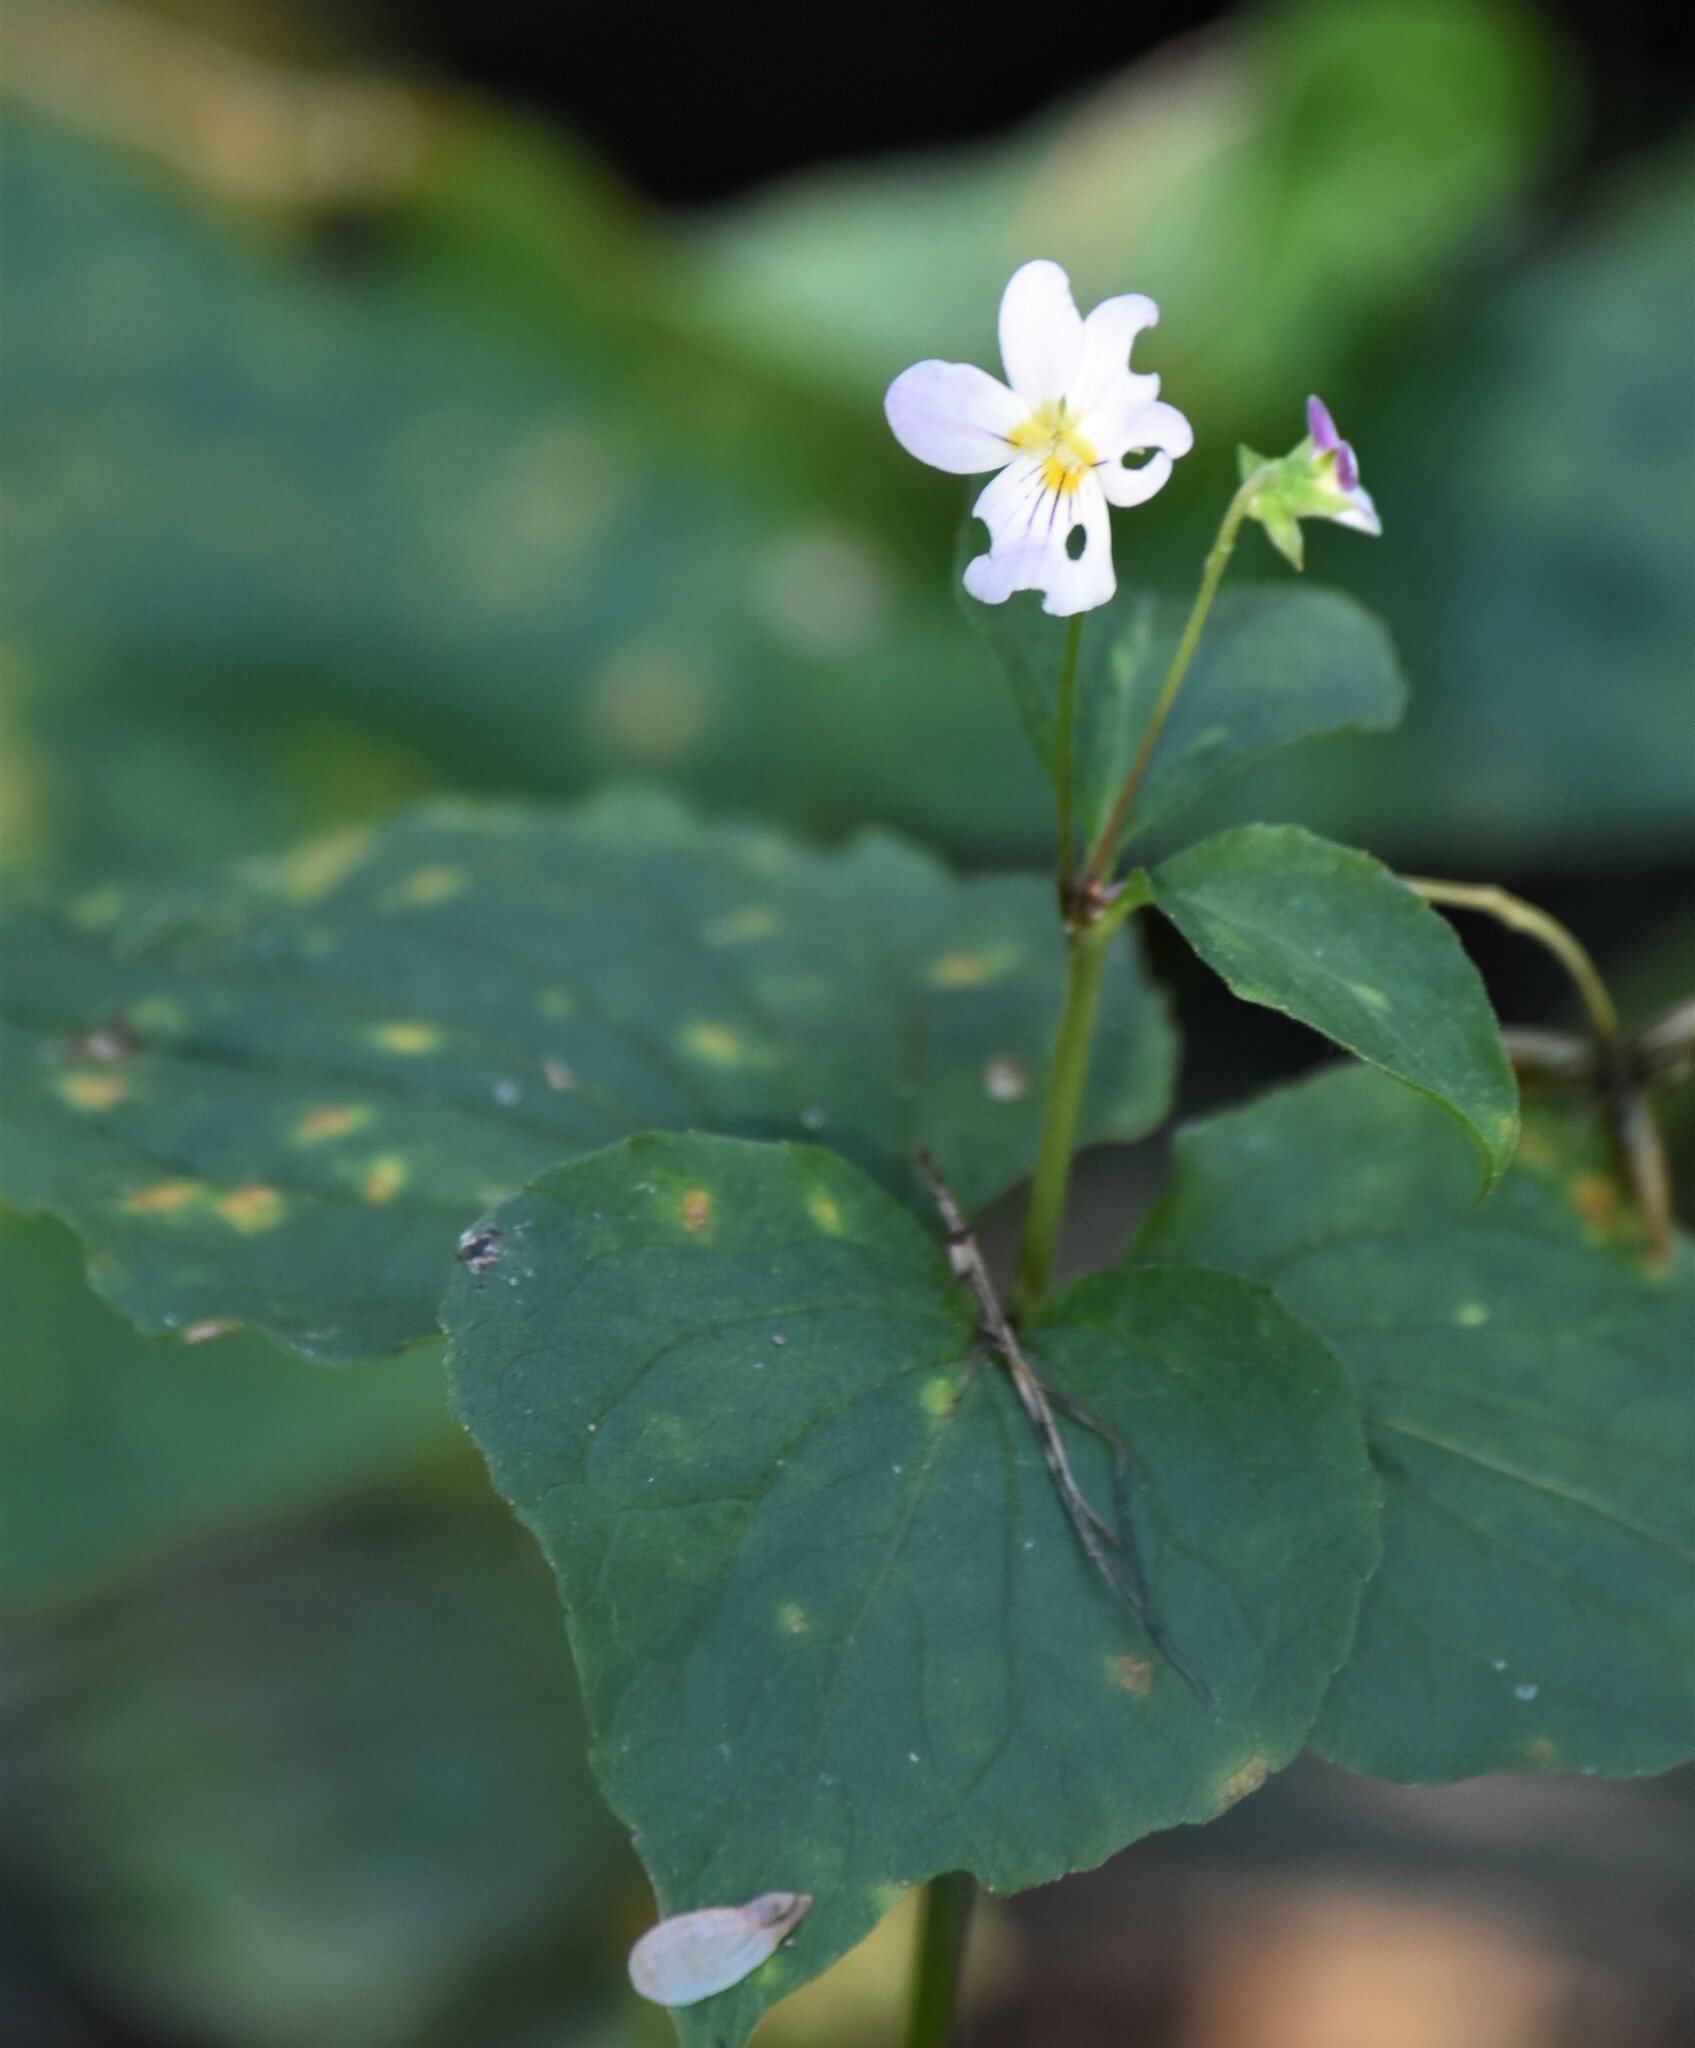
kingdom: Plantae
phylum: Tracheophyta
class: Magnoliopsida
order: Malpighiales
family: Violaceae
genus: Viola
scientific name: Viola canadensis
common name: Canada violet
